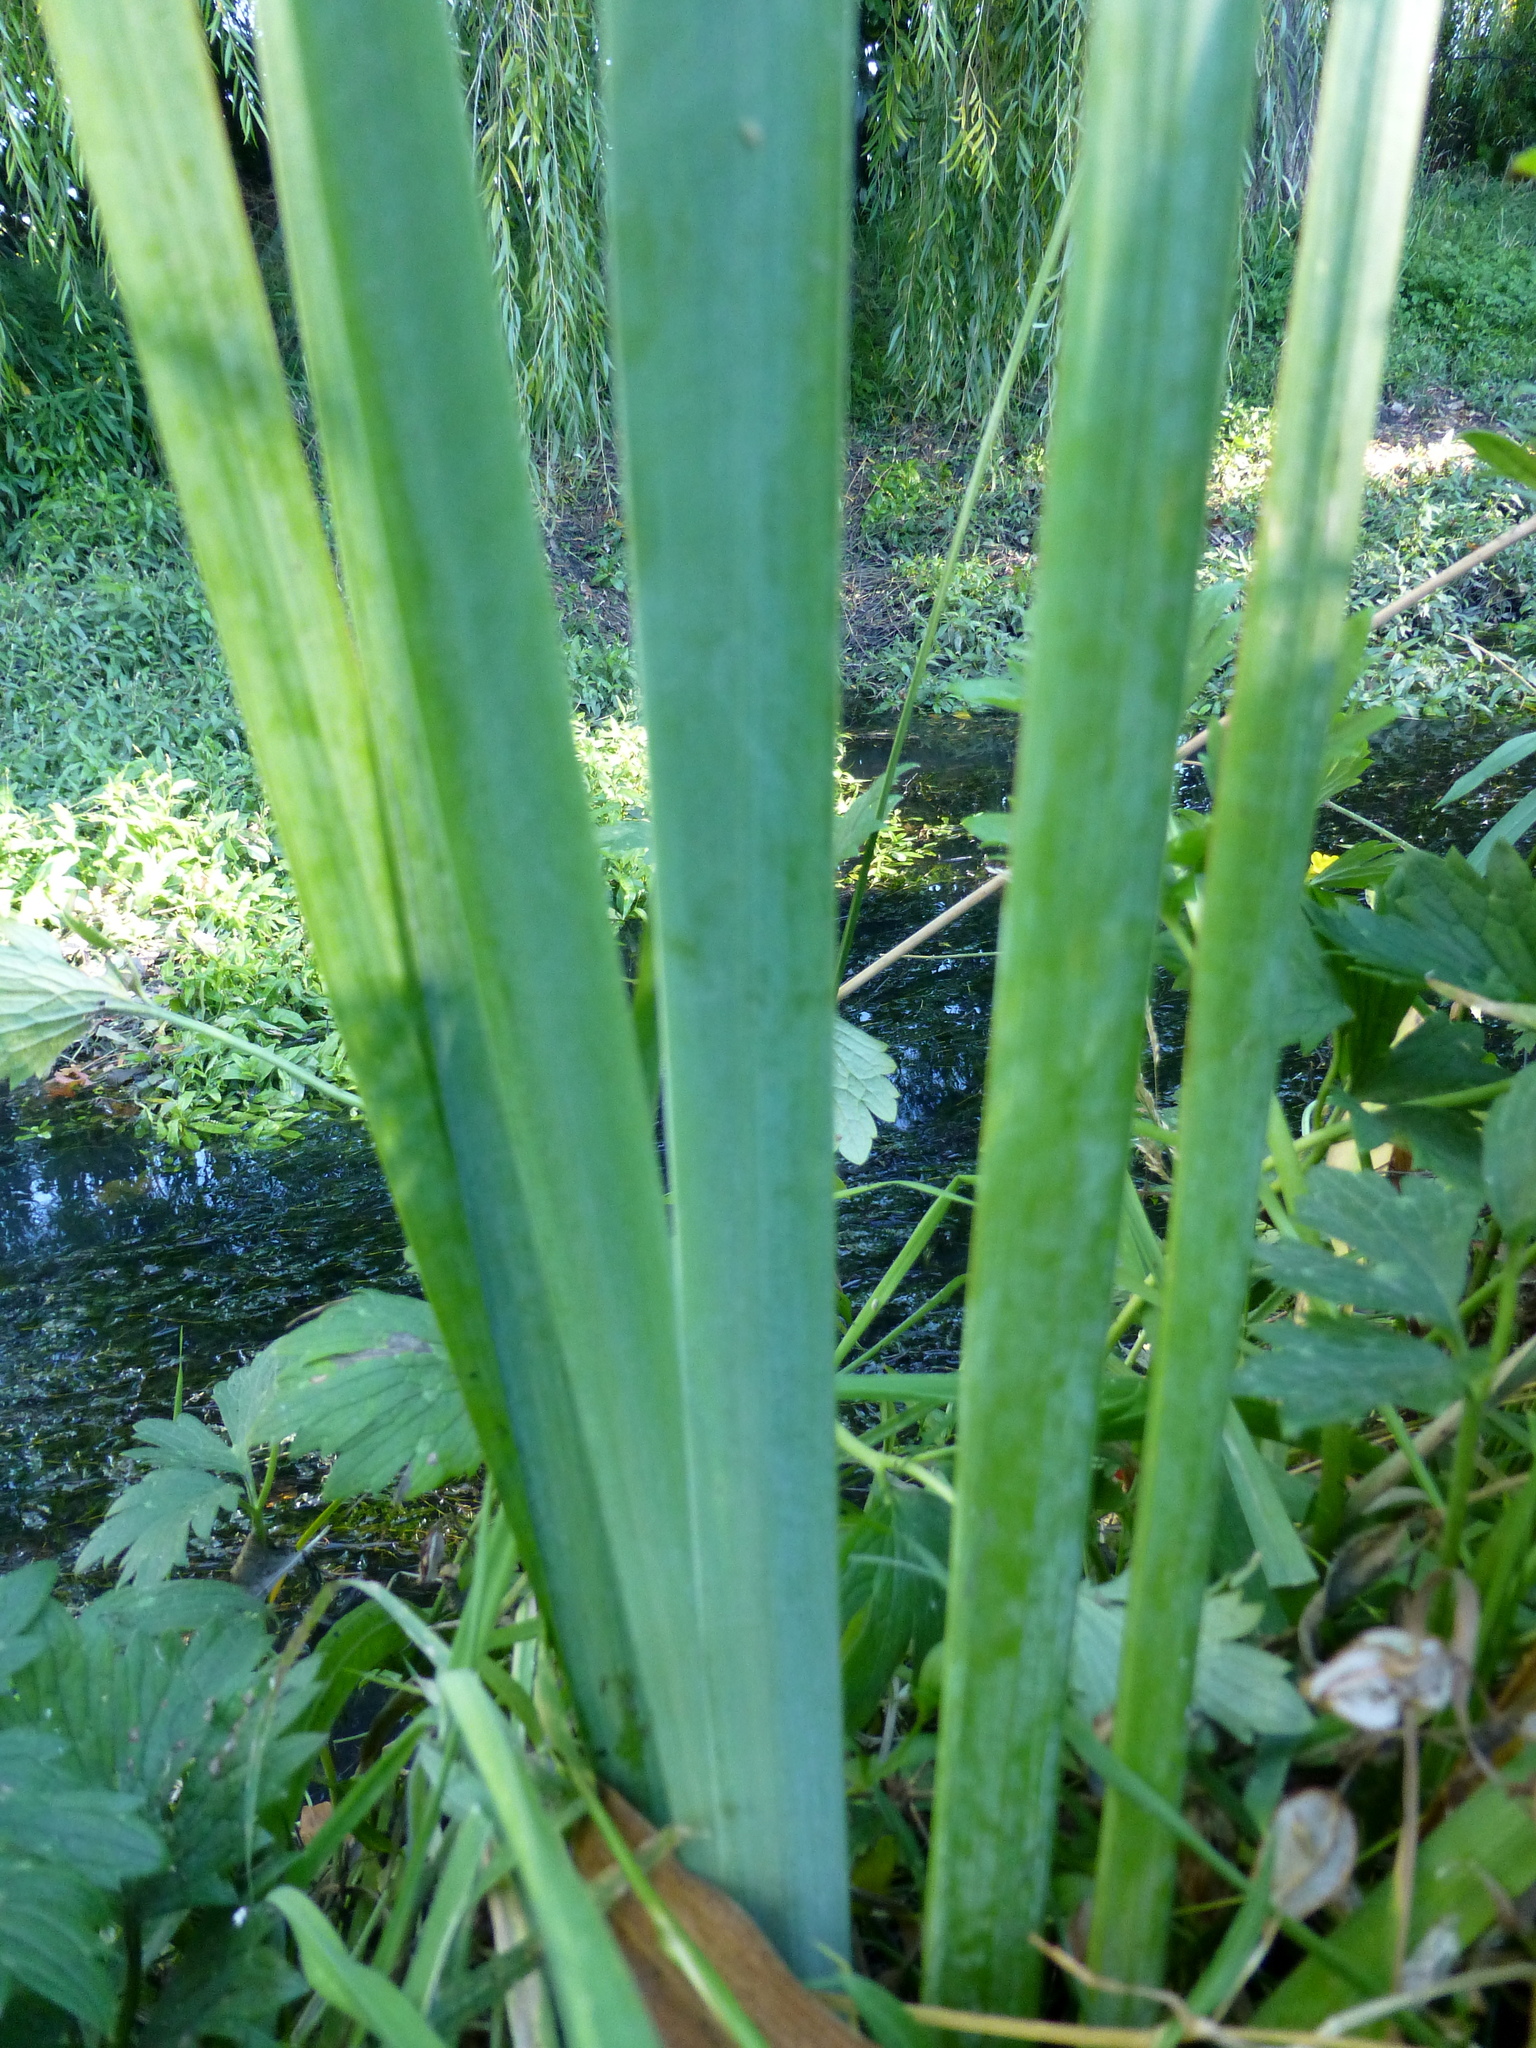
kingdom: Plantae
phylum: Tracheophyta
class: Liliopsida
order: Asparagales
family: Iridaceae
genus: Iris
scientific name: Iris pseudacorus
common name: Yellow flag
